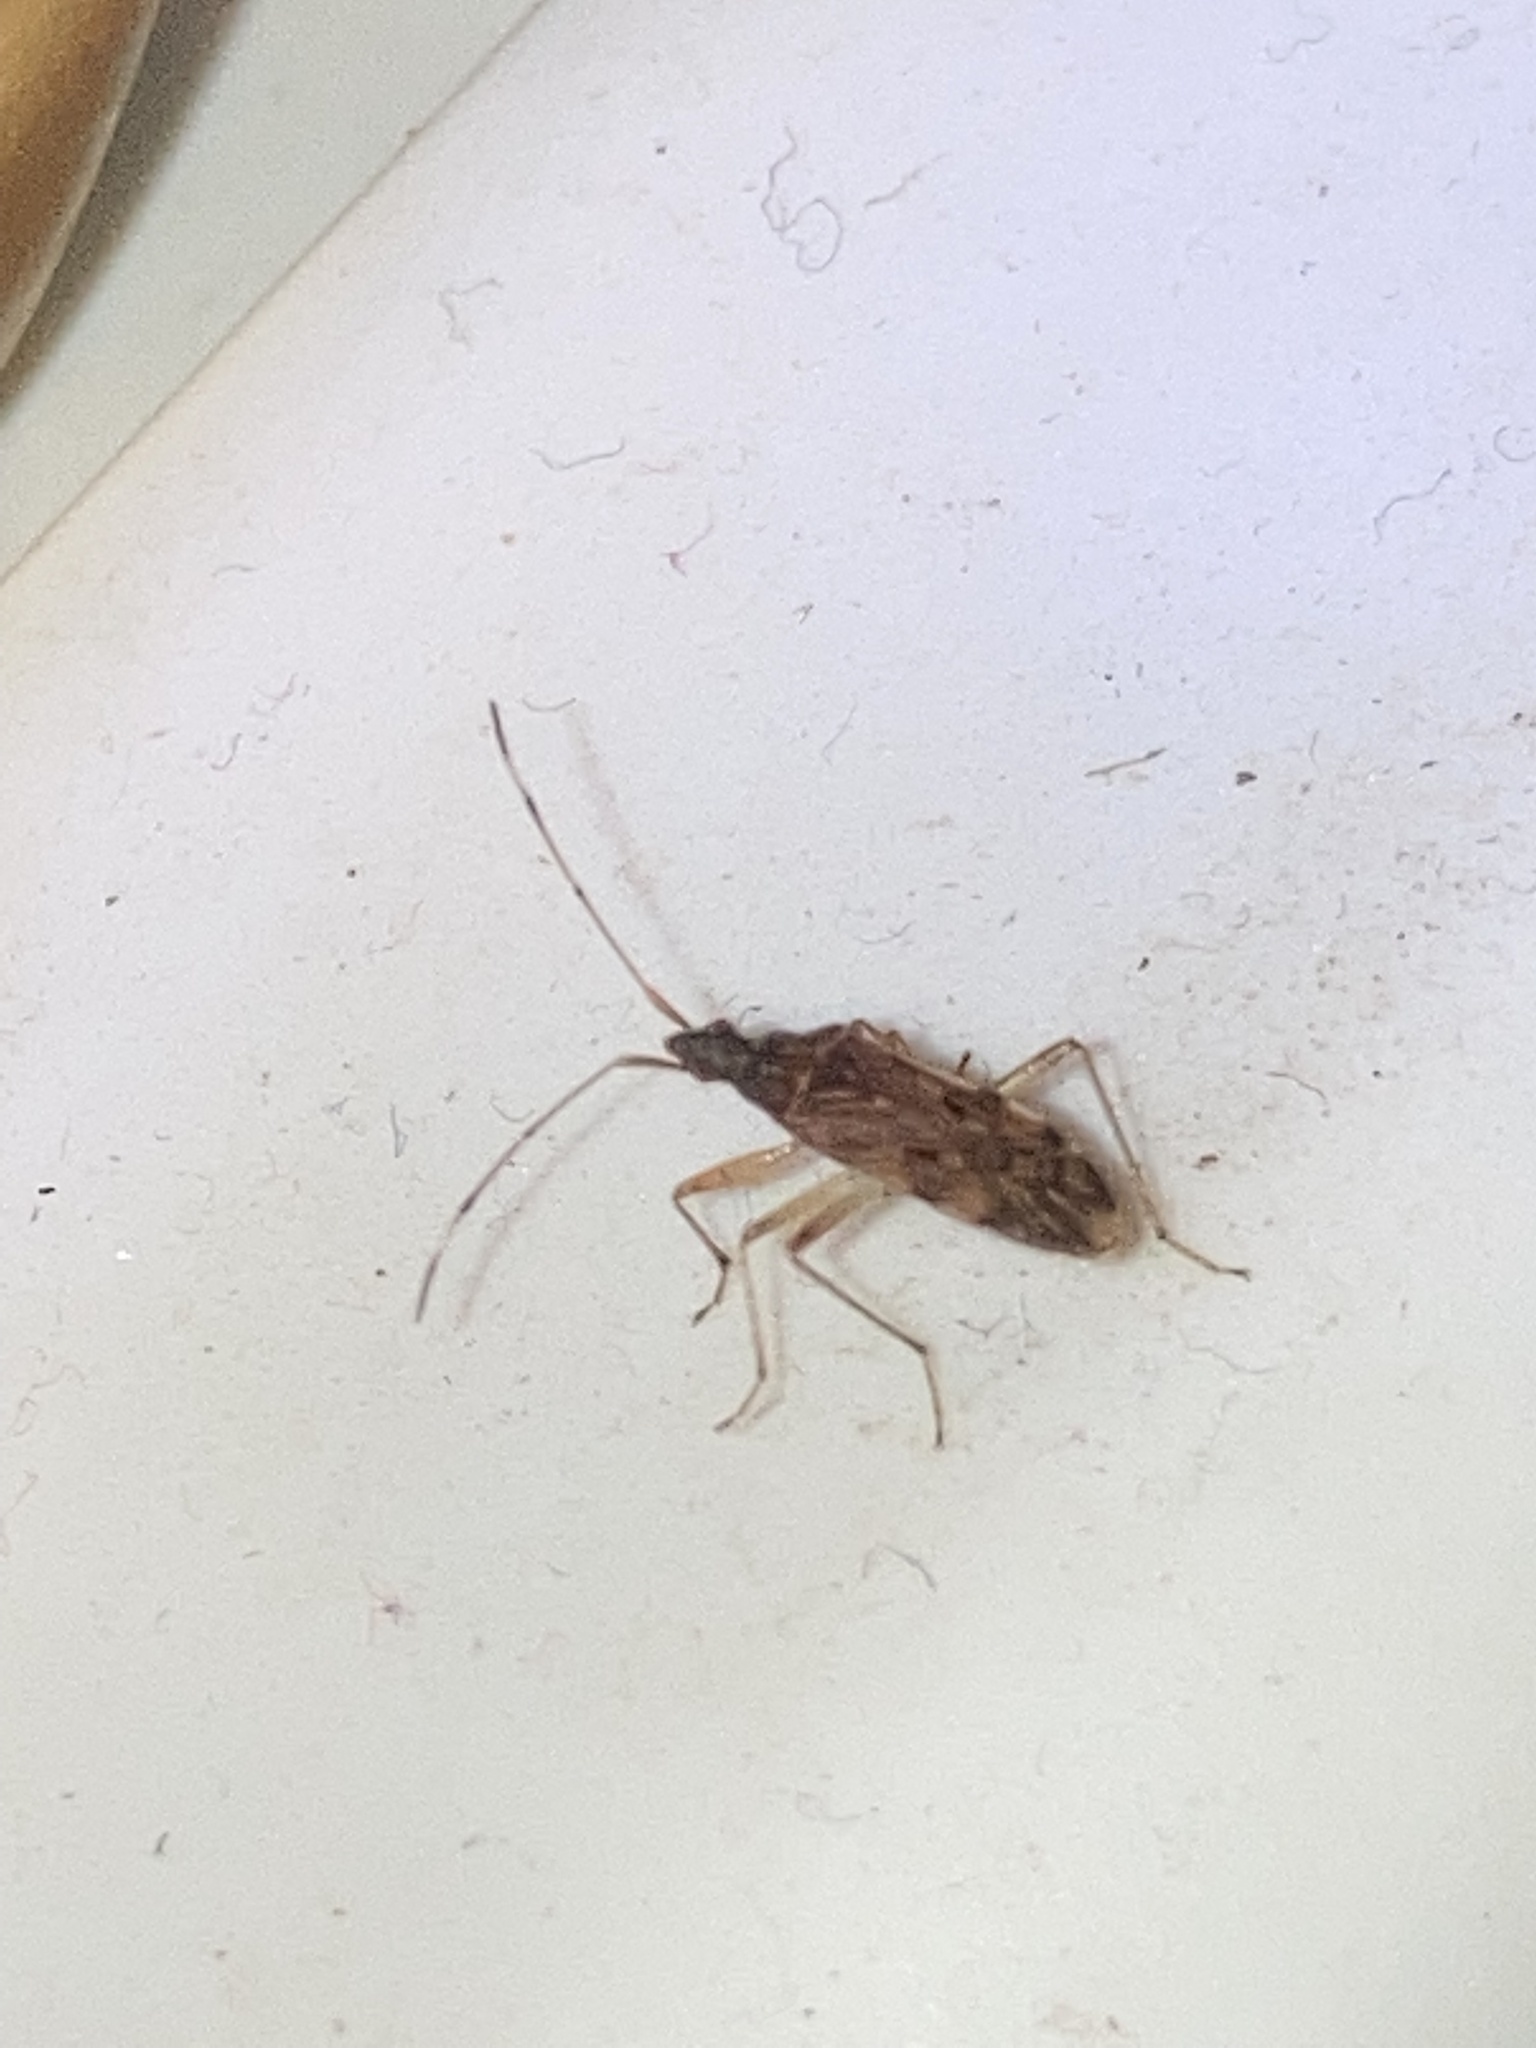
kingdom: Animalia
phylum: Arthropoda
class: Insecta
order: Hemiptera
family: Rhyparochromidae
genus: Ozophora
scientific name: Ozophora picturata
